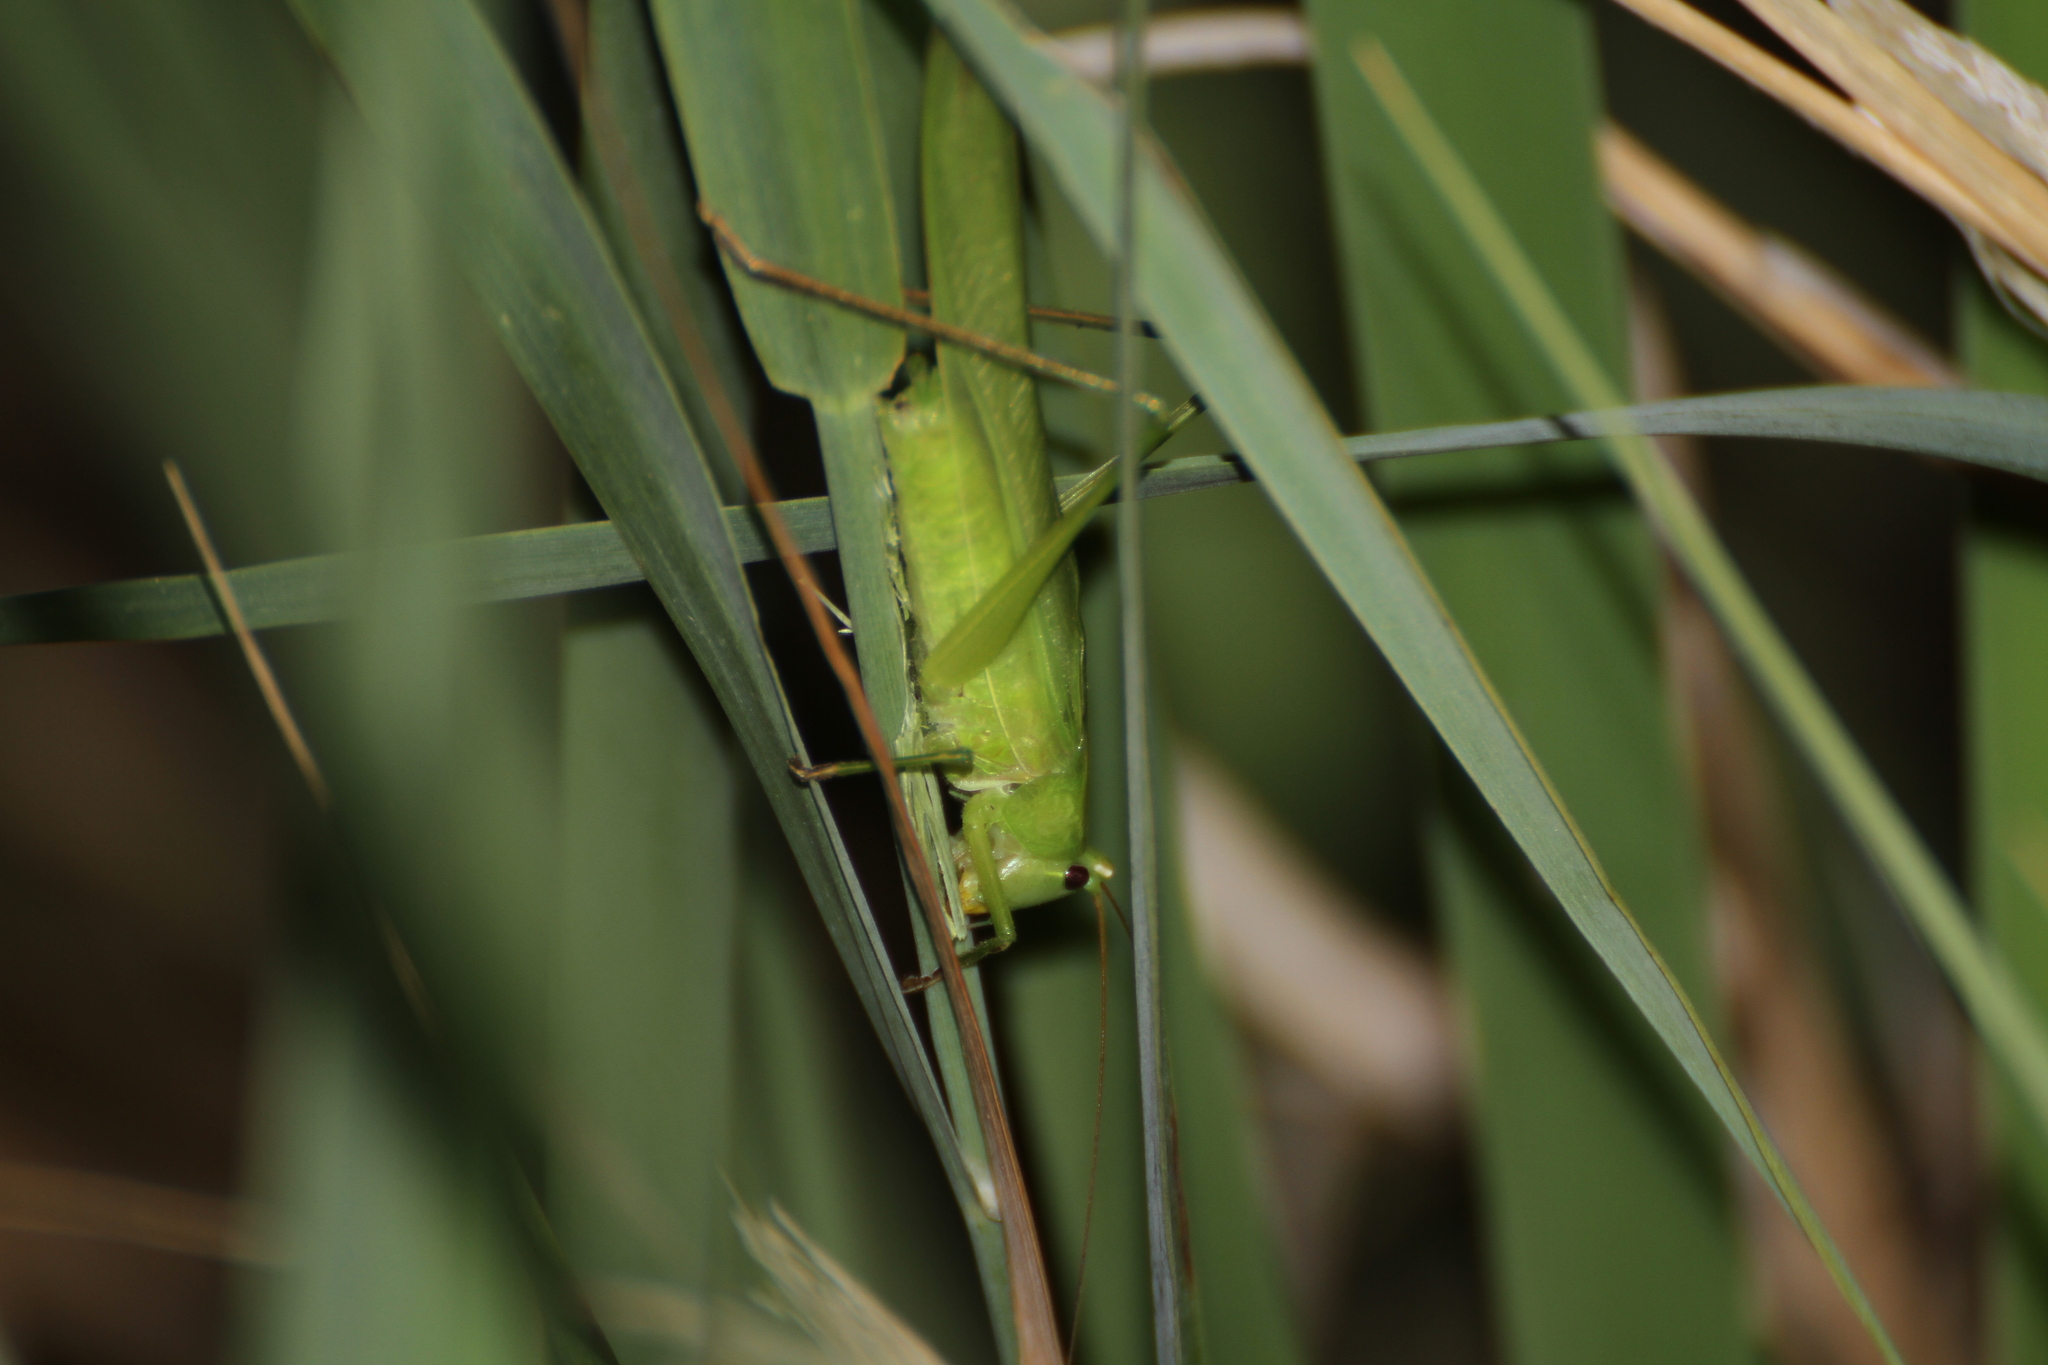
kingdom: Animalia
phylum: Arthropoda
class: Insecta
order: Orthoptera
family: Tettigoniidae
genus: Ruspolia
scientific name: Ruspolia nitidula
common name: Large conehead
